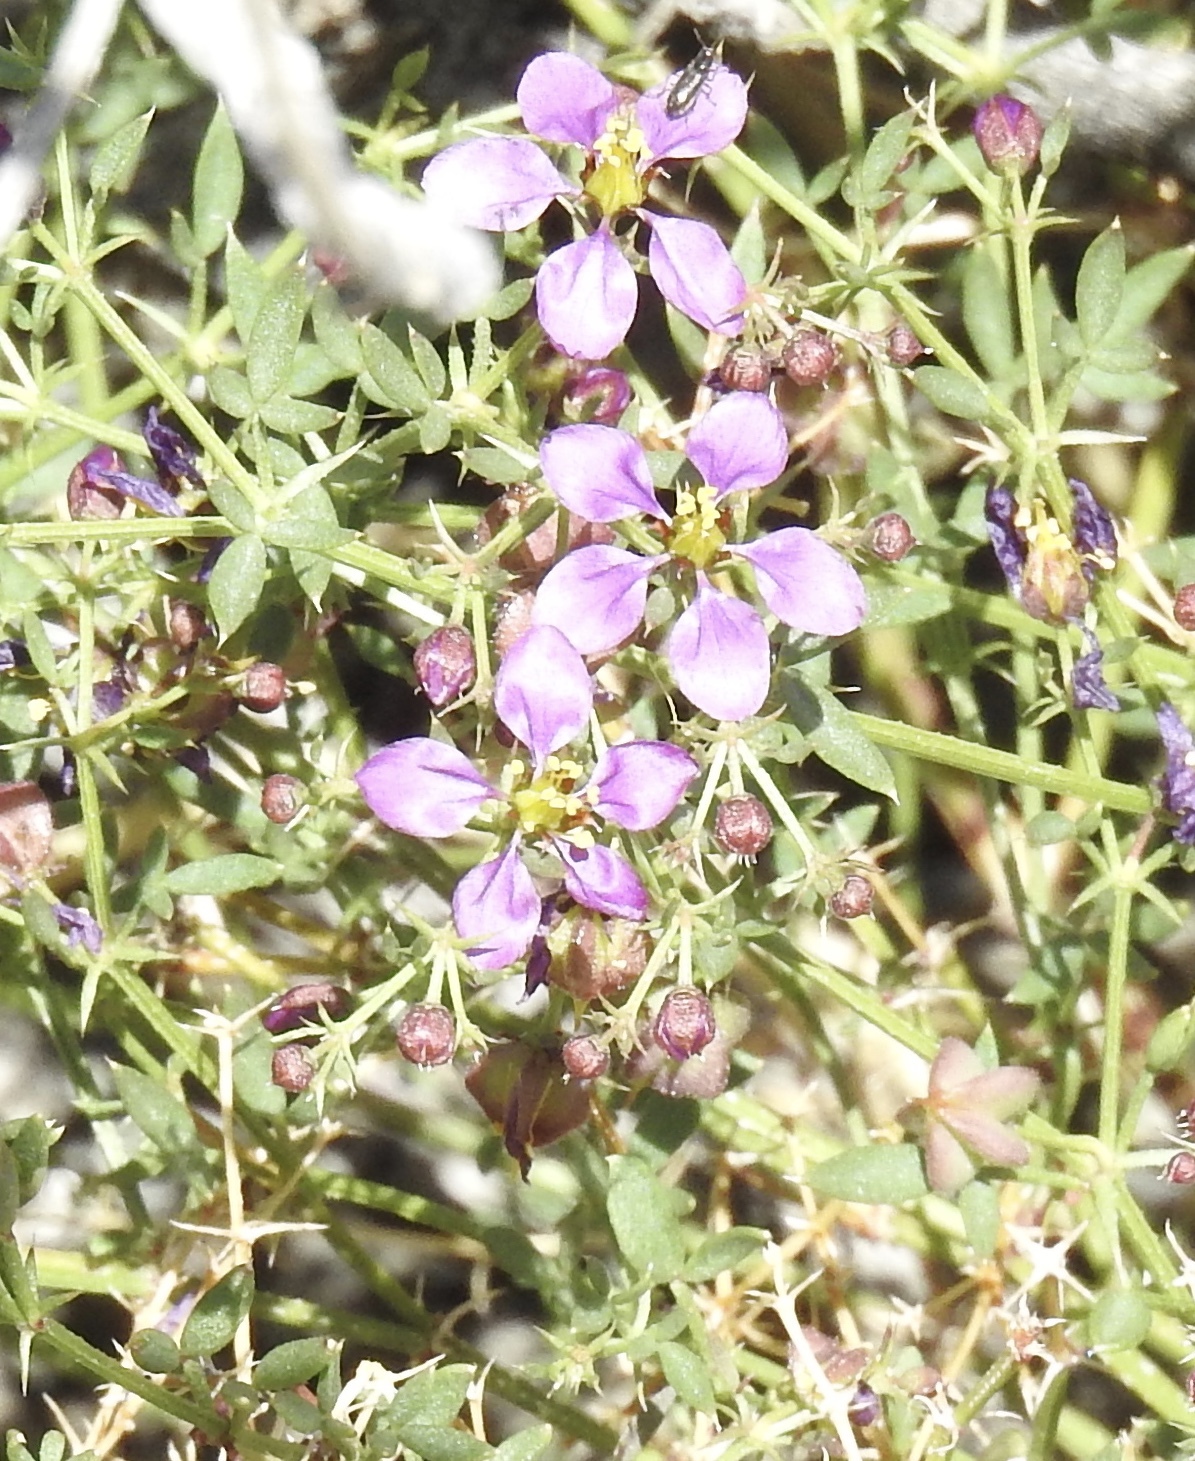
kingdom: Plantae
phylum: Tracheophyta
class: Magnoliopsida
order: Zygophyllales
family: Zygophyllaceae
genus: Fagonia
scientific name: Fagonia laevis
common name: California fagonbush
